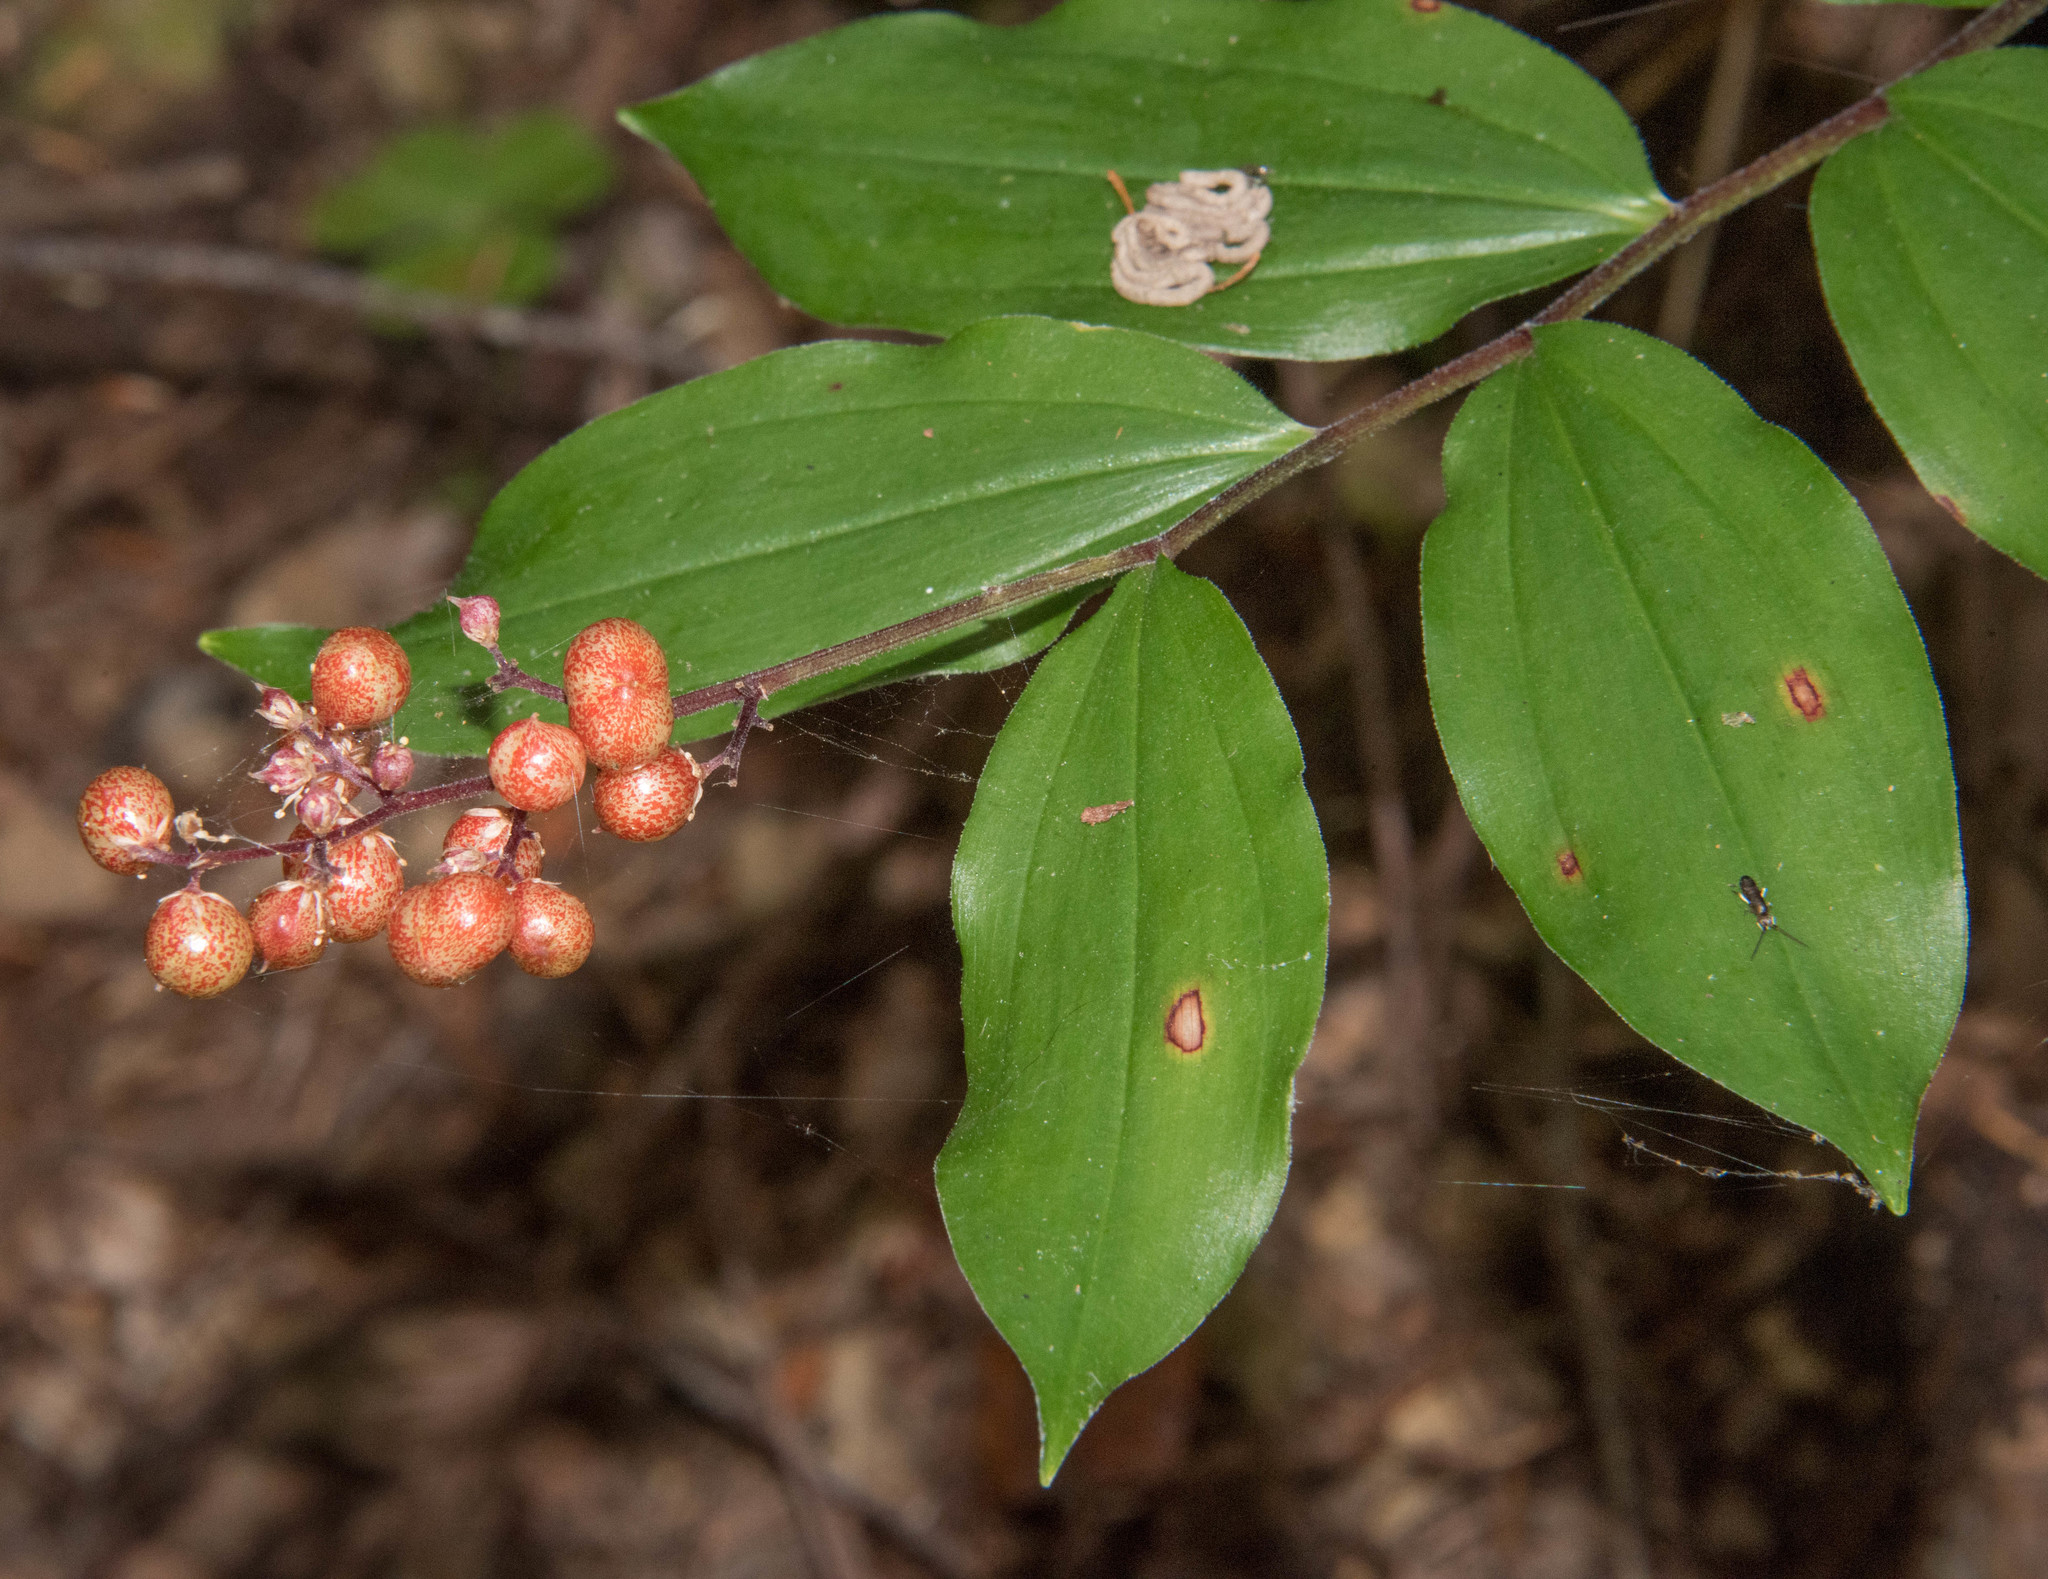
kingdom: Plantae
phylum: Tracheophyta
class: Liliopsida
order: Asparagales
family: Asparagaceae
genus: Maianthemum
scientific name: Maianthemum racemosum
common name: False spikenard
